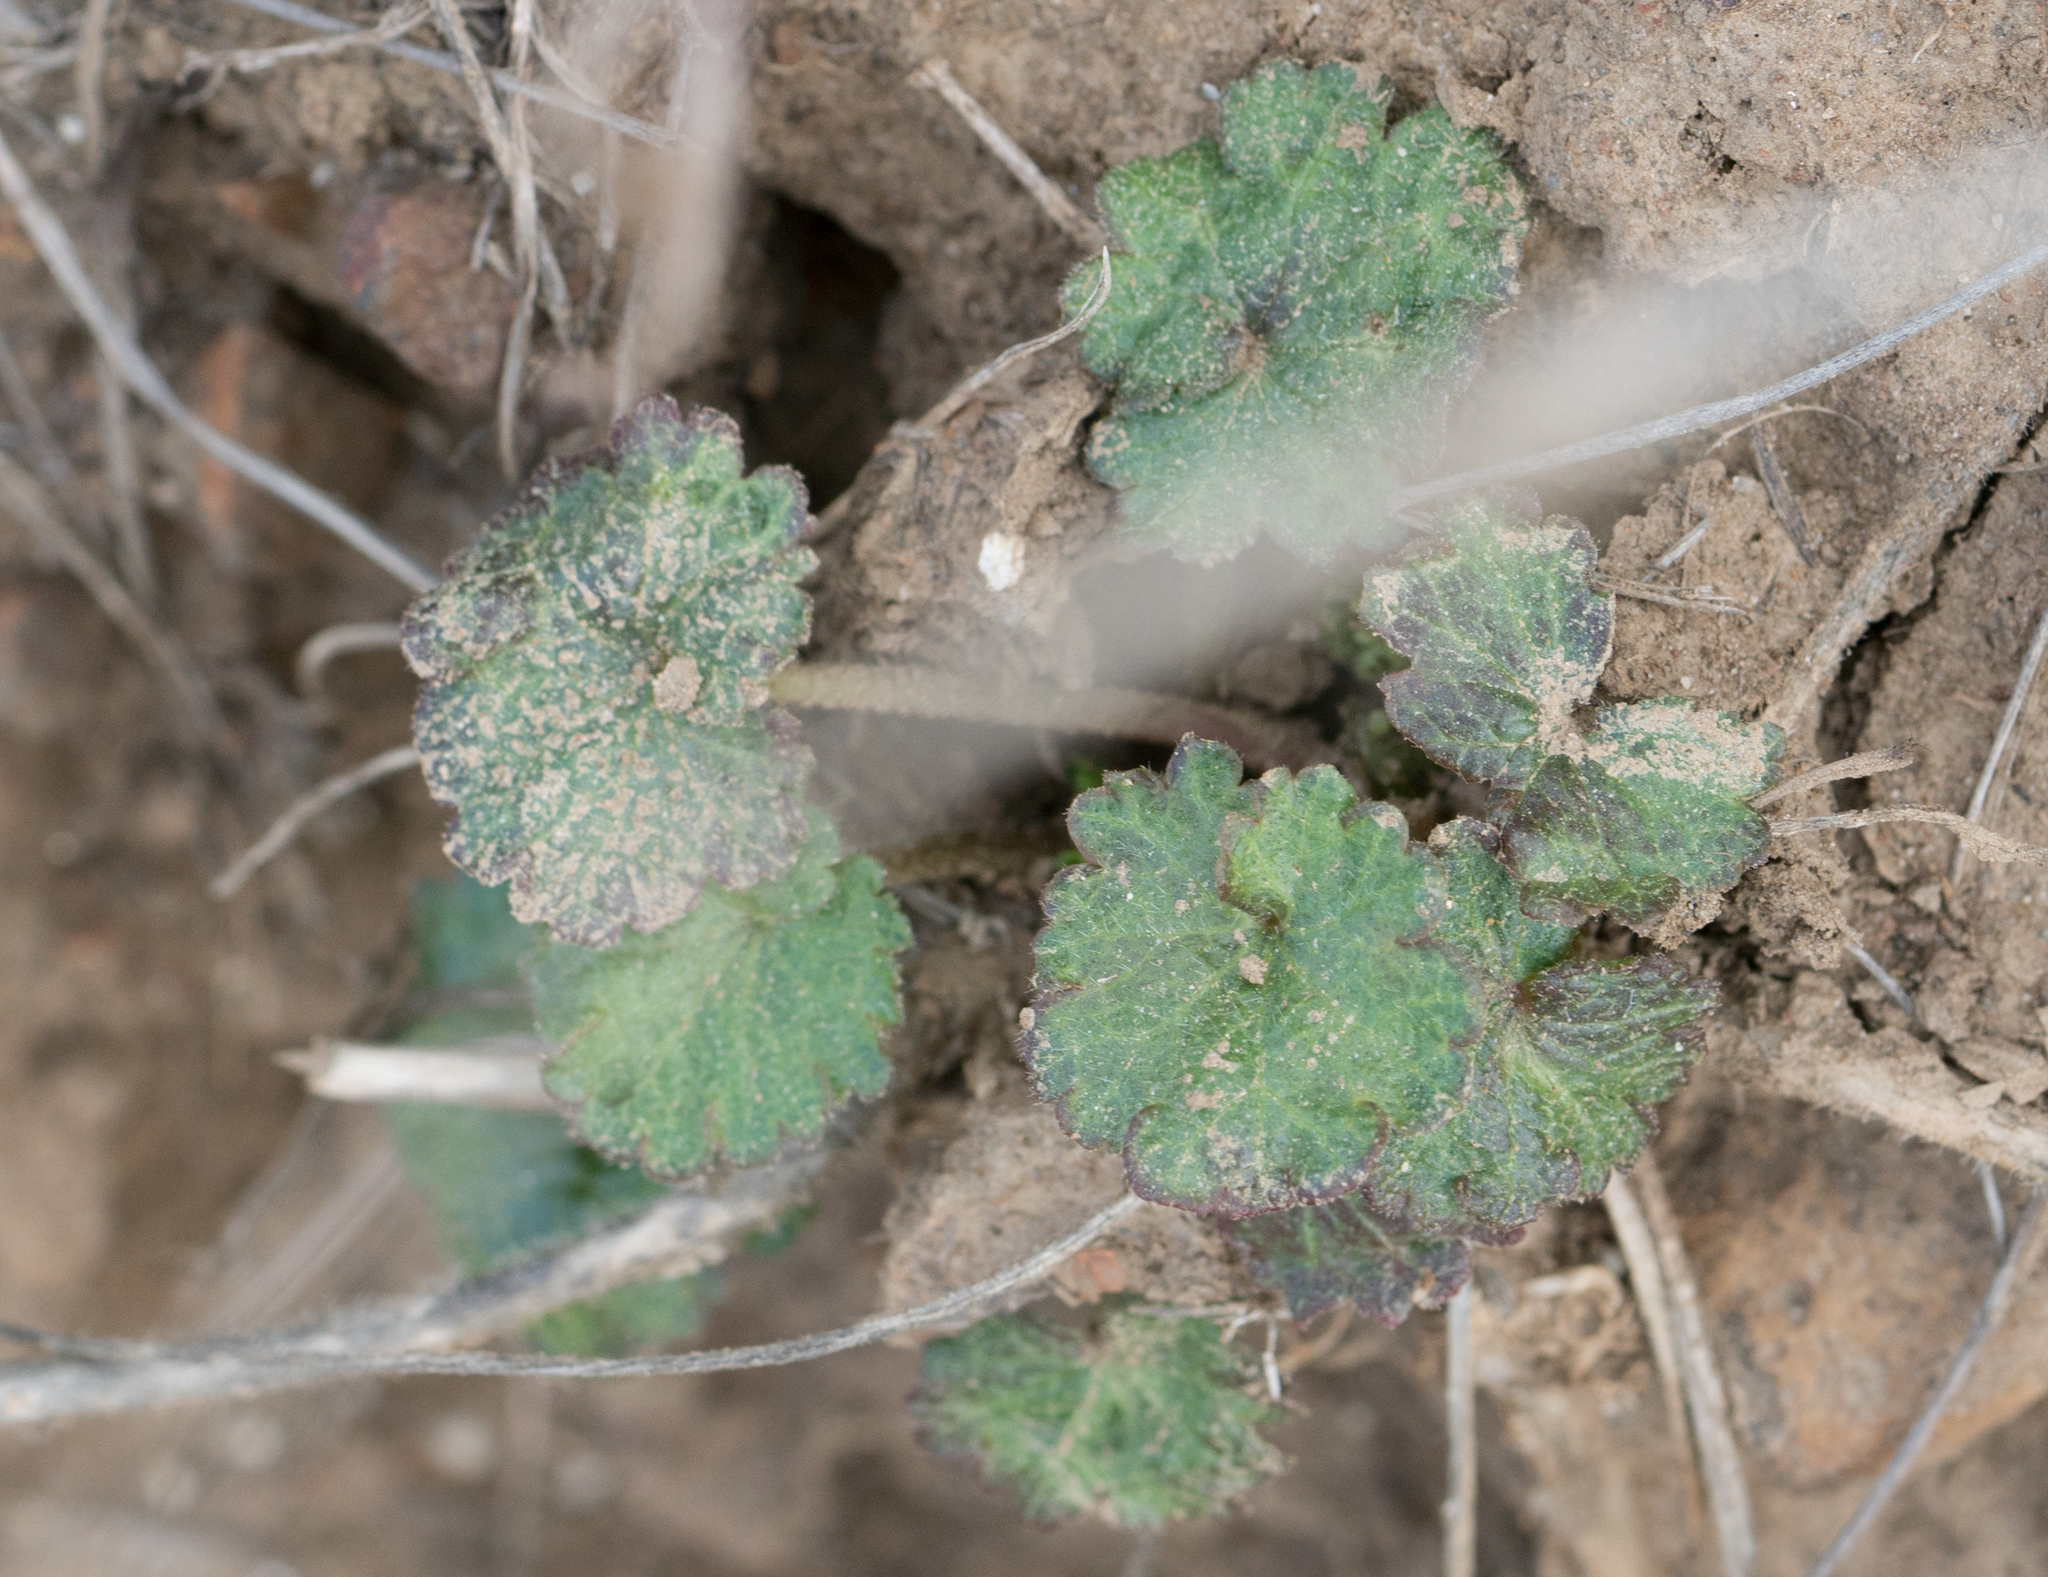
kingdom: Plantae
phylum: Tracheophyta
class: Magnoliopsida
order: Saxifragales
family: Saxifragaceae
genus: Jepsonia
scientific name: Jepsonia parryi
